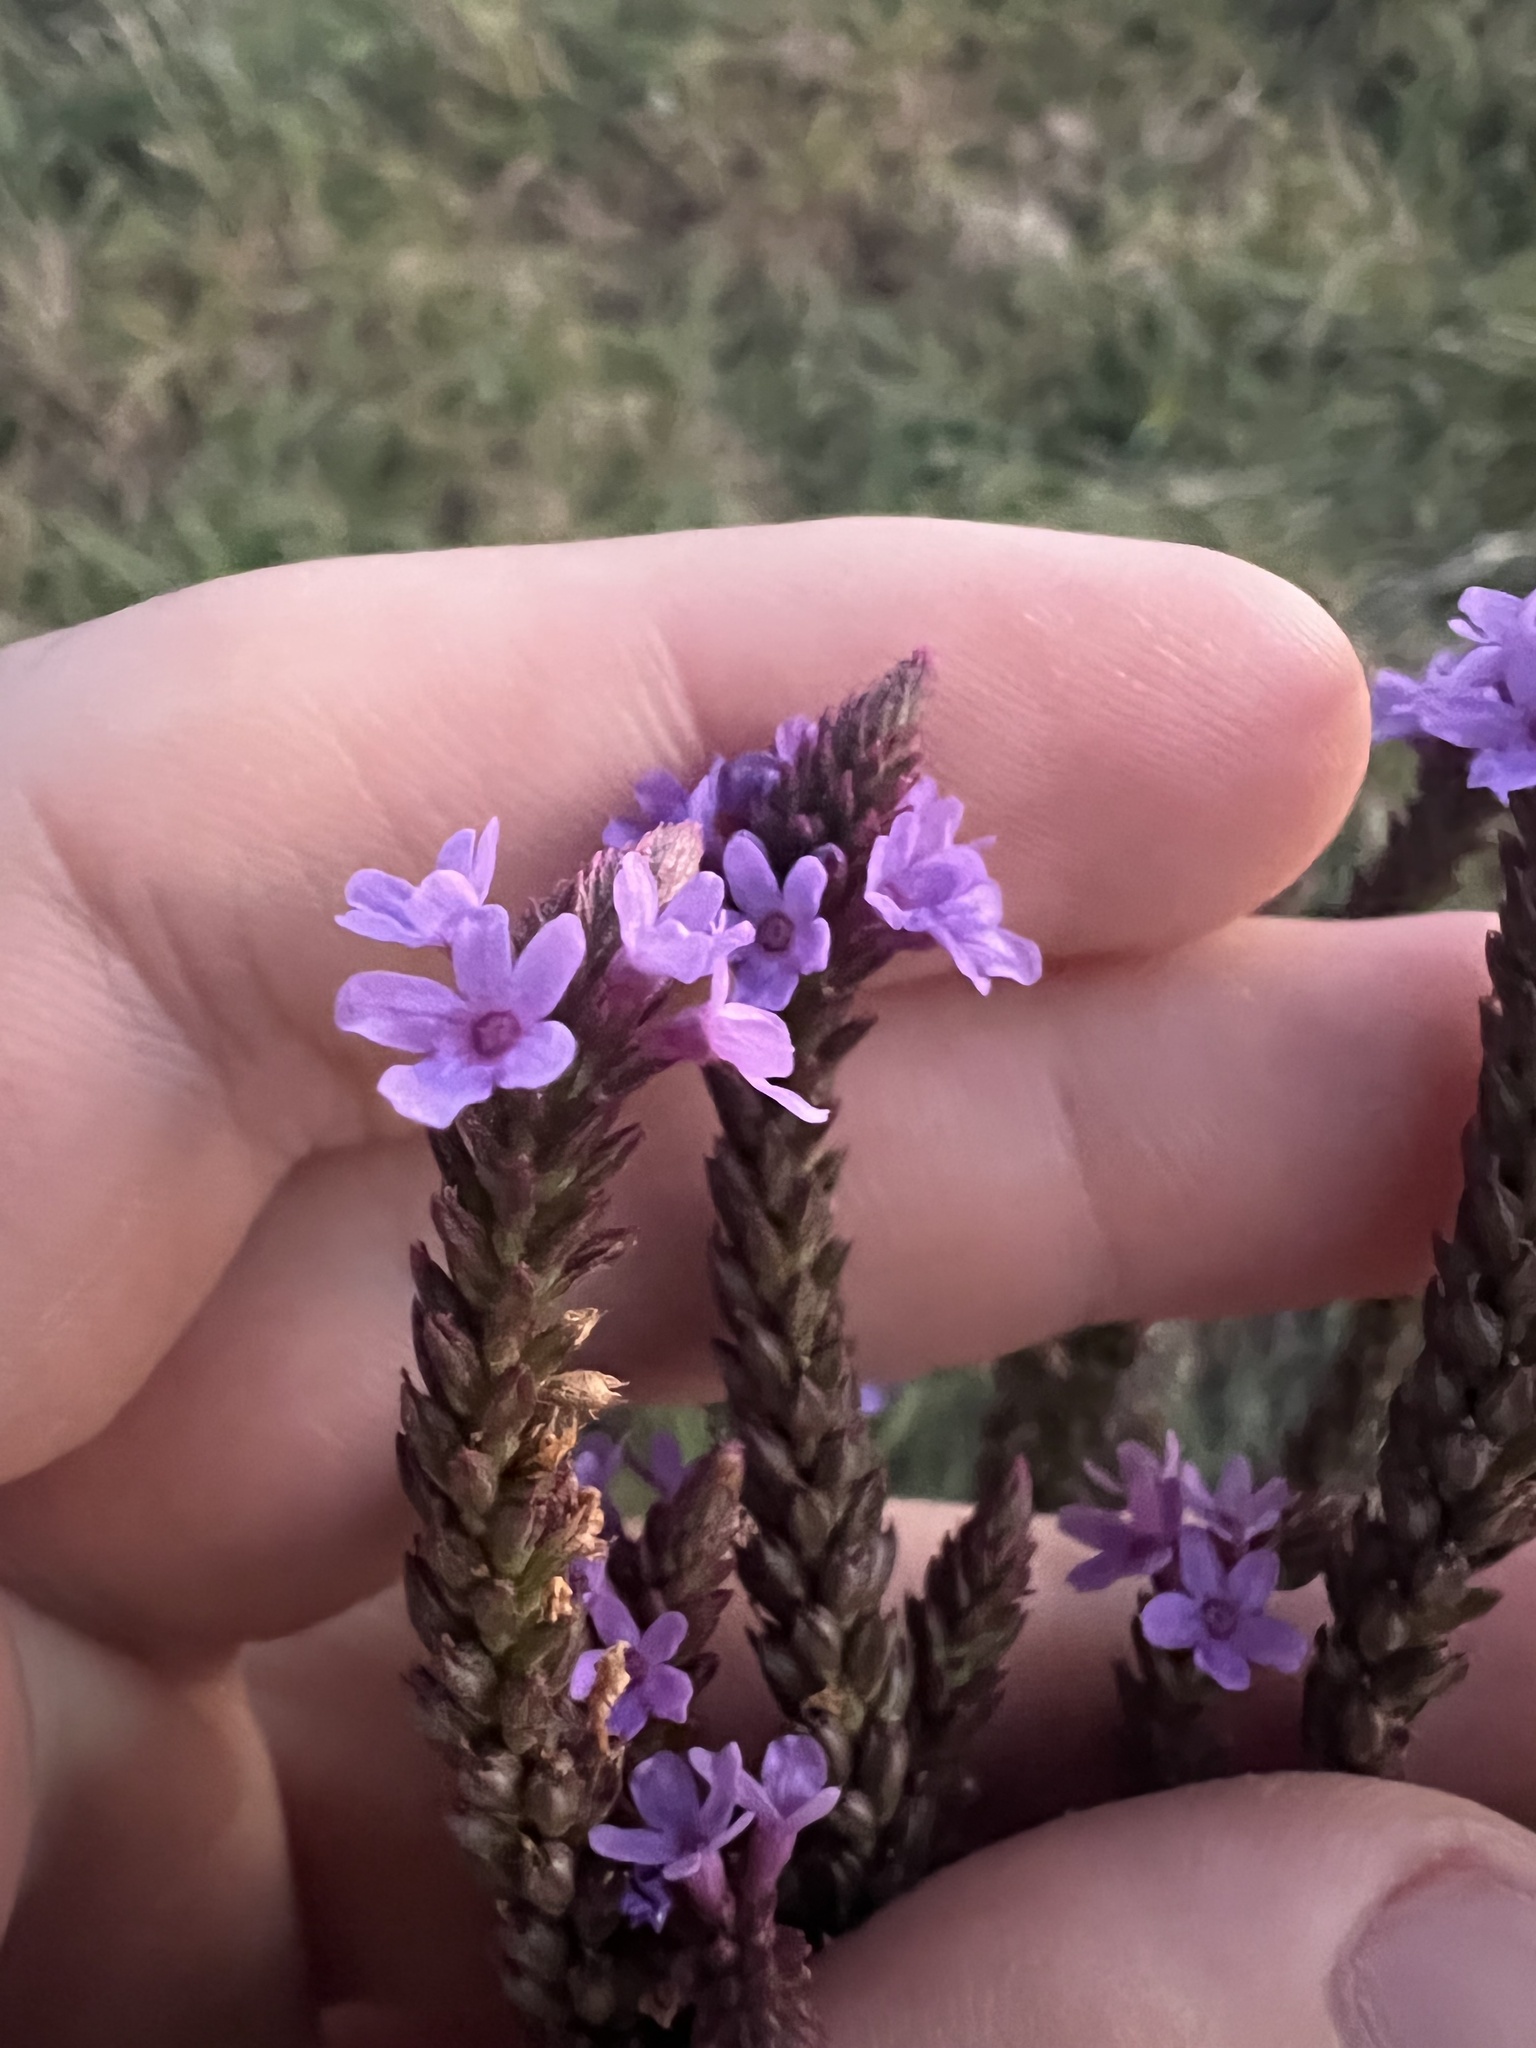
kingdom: Plantae
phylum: Tracheophyta
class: Magnoliopsida
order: Lamiales
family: Verbenaceae
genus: Verbena
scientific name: Verbena hastata
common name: American blue vervain
